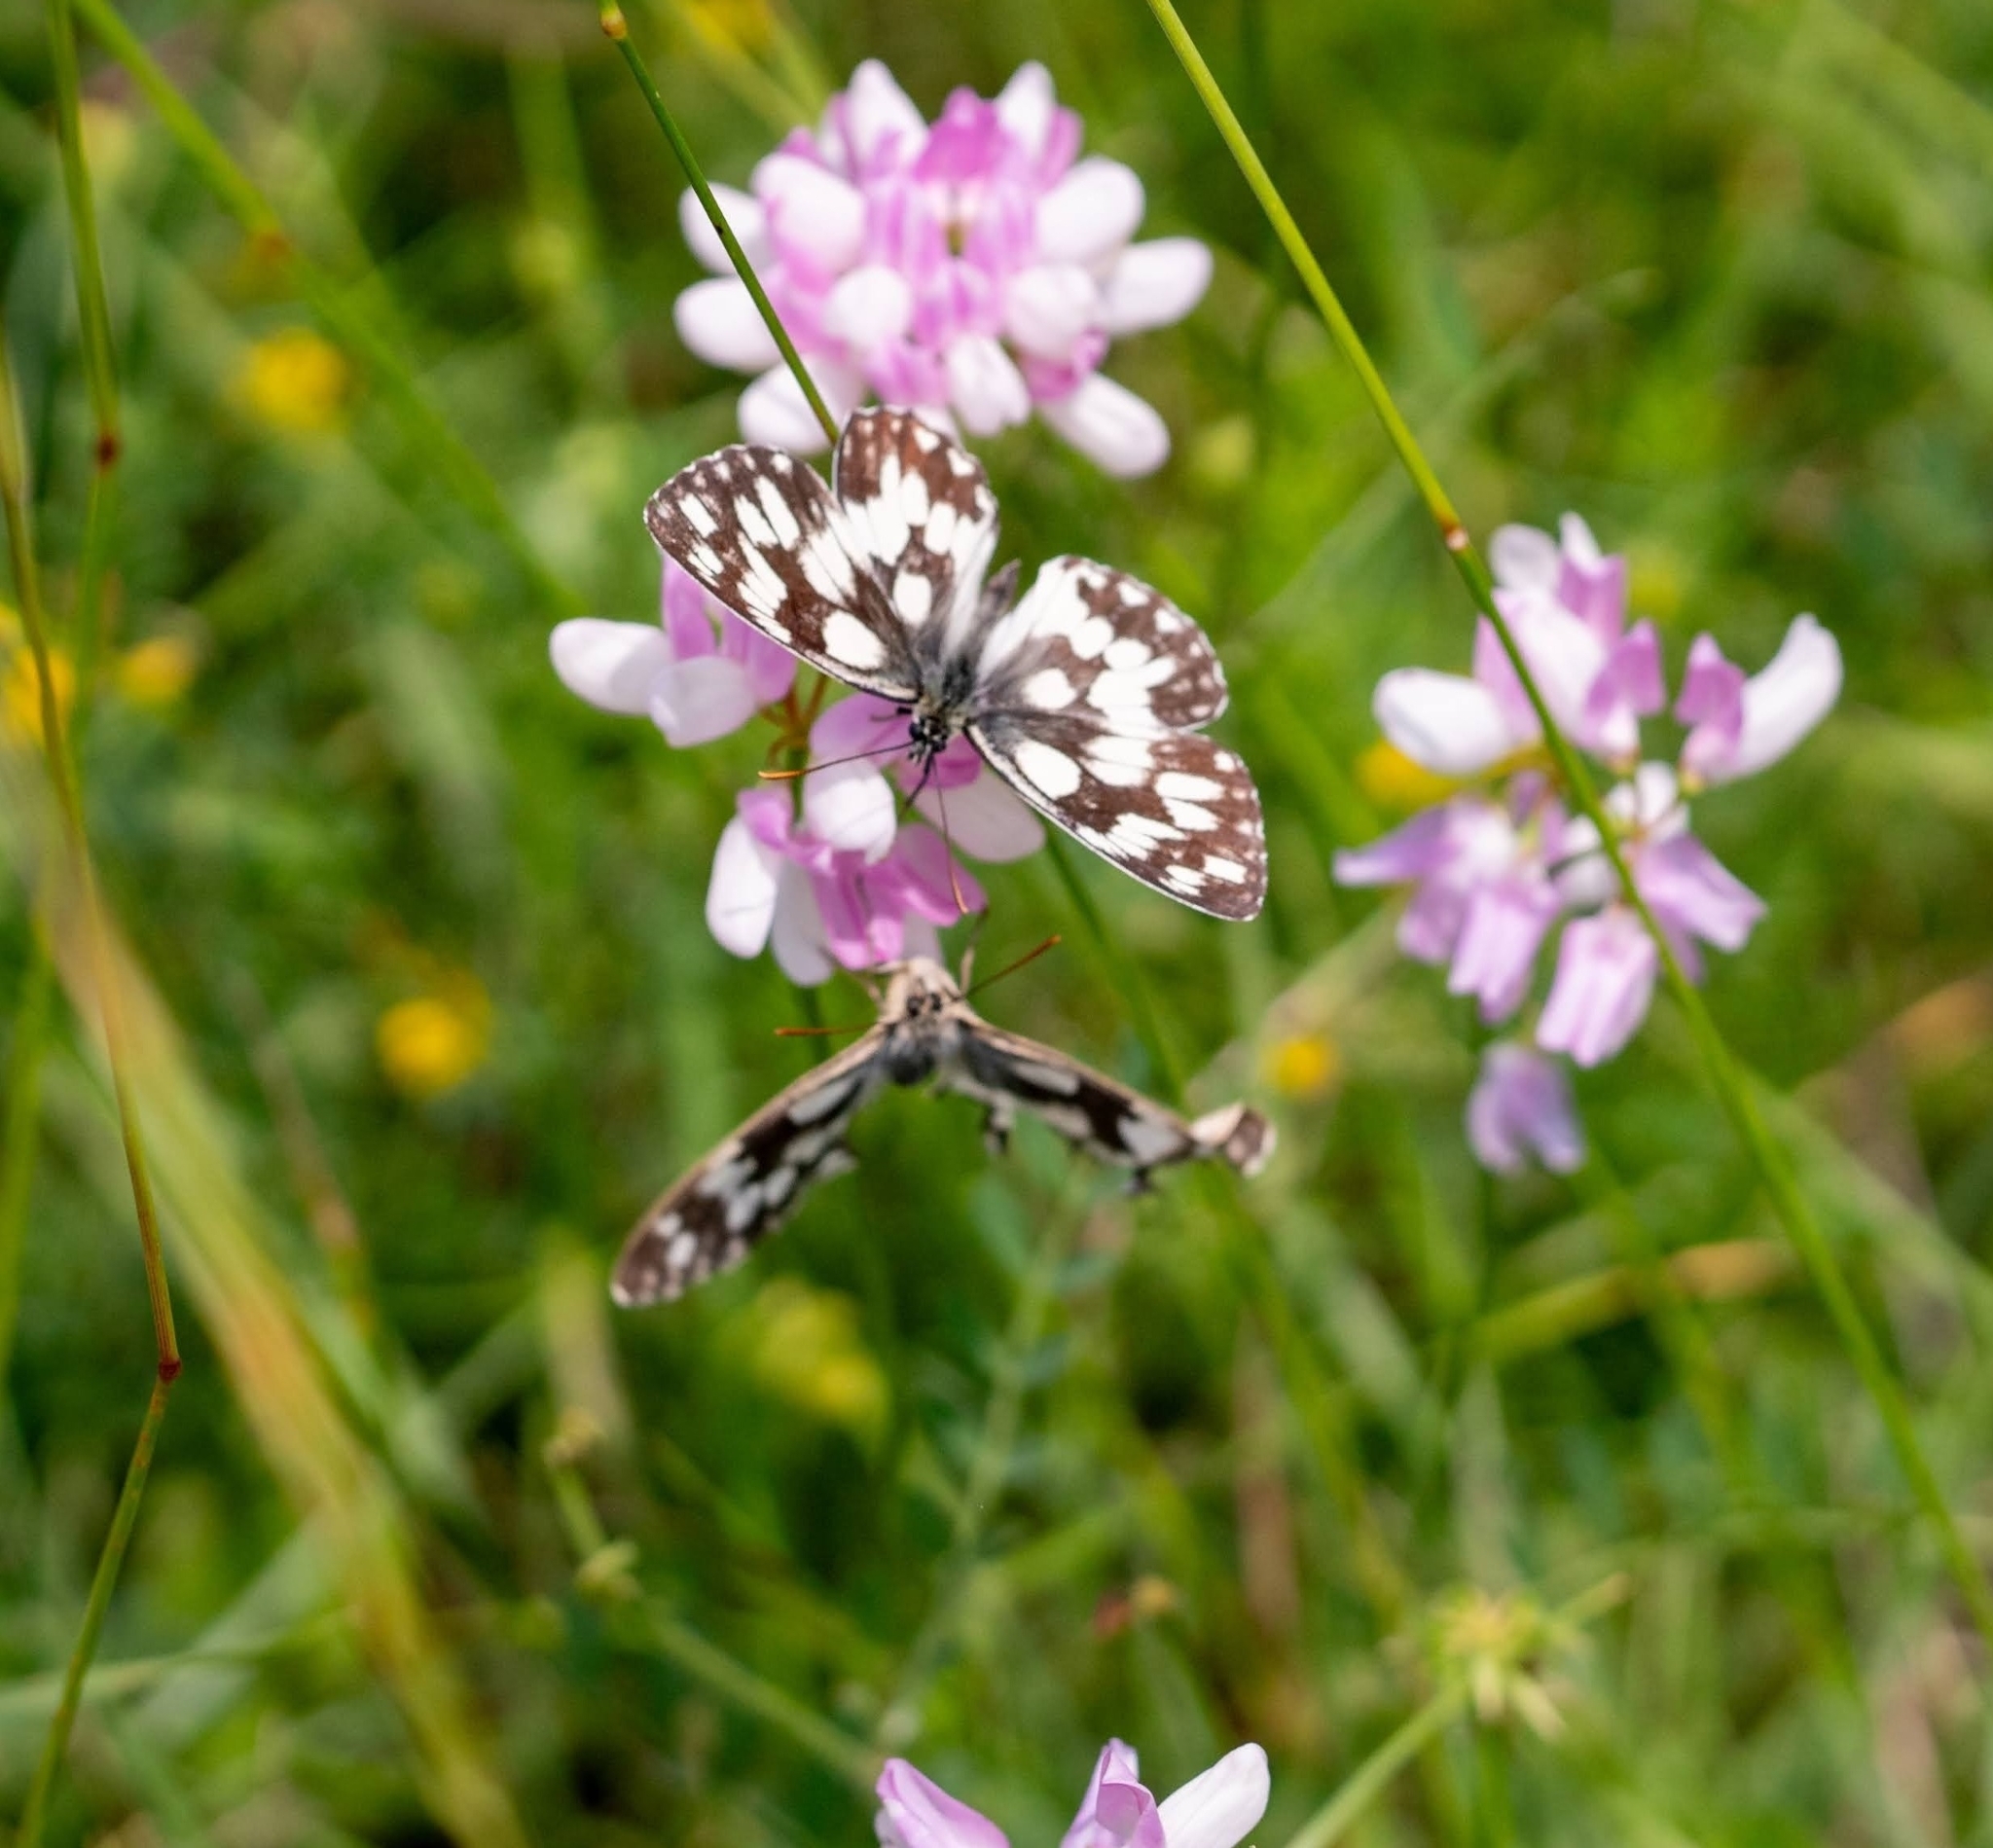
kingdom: Animalia
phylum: Arthropoda
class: Insecta
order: Lepidoptera
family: Nymphalidae
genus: Melanargia
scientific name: Melanargia galathea
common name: Marbled white
